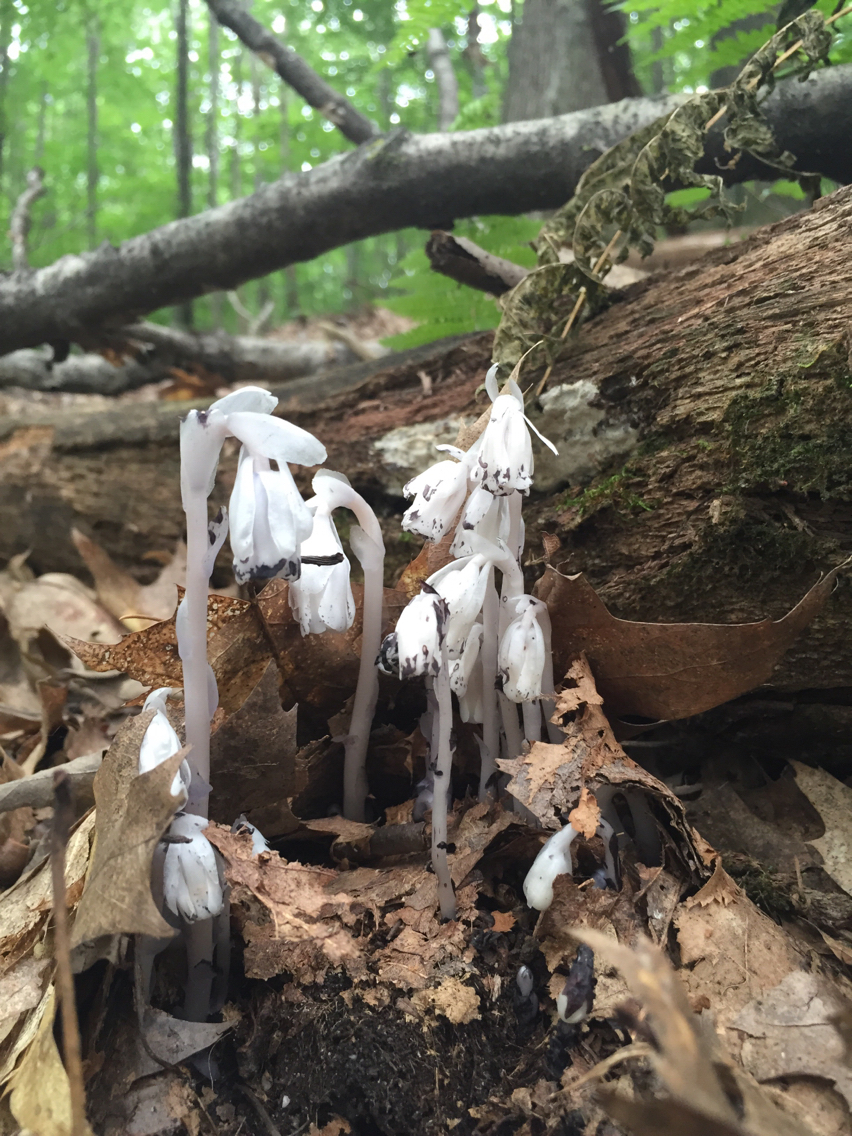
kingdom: Plantae
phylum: Tracheophyta
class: Magnoliopsida
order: Ericales
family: Ericaceae
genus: Monotropa
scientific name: Monotropa uniflora
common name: Convulsion root
